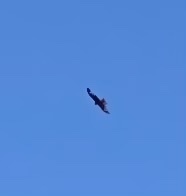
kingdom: Animalia
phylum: Chordata
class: Aves
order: Accipitriformes
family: Accipitridae
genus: Milvus
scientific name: Milvus milvus
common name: Red kite
